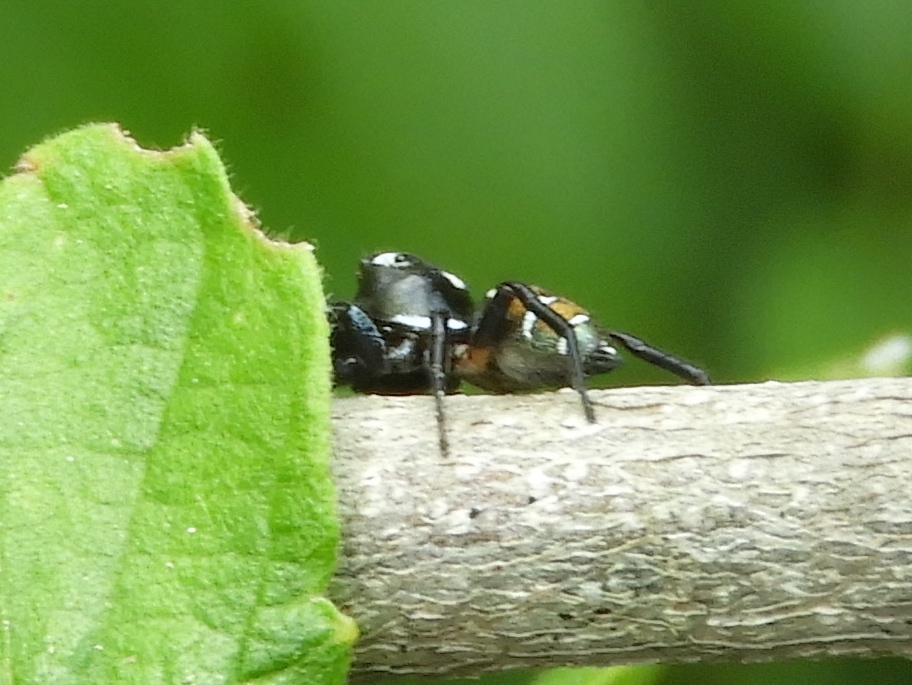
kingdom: Animalia
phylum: Arthropoda
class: Arachnida
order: Araneae
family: Salticidae
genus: Sassacus
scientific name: Sassacus
